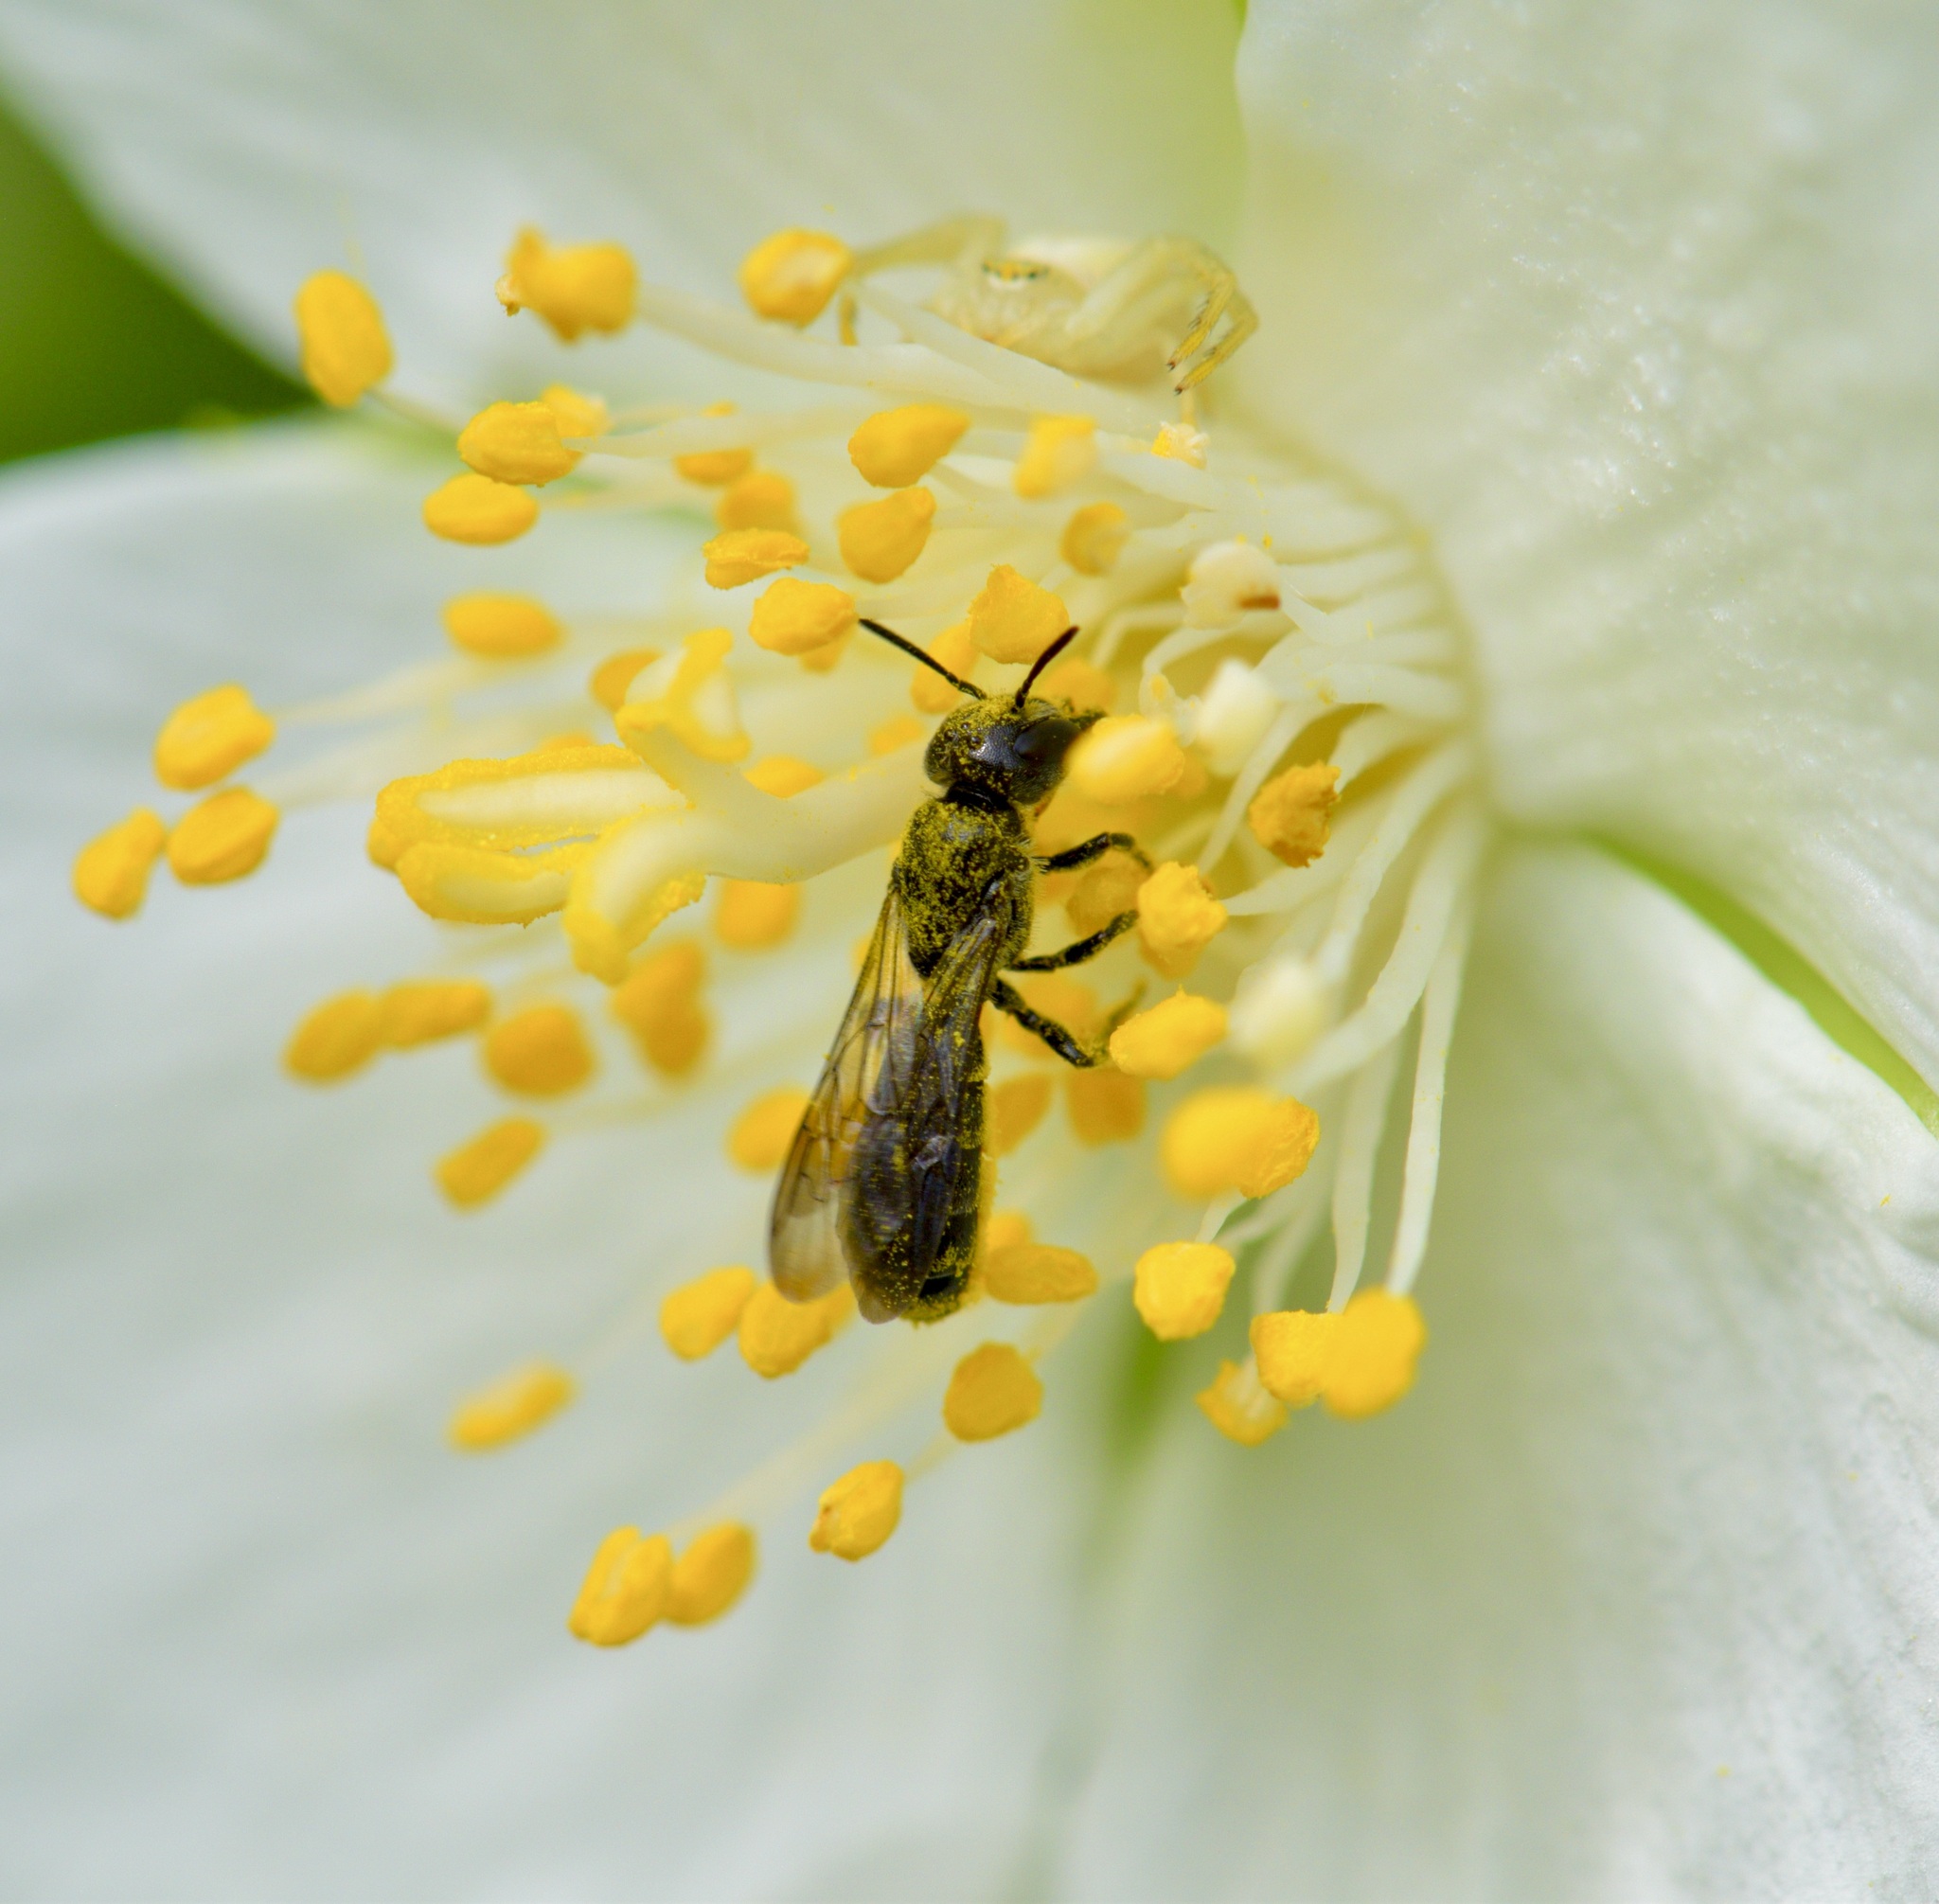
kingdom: Animalia
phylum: Arthropoda
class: Insecta
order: Hymenoptera
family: Megachilidae
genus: Chelostoma
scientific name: Chelostoma philadelphi
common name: Mock-orange scissor bee
